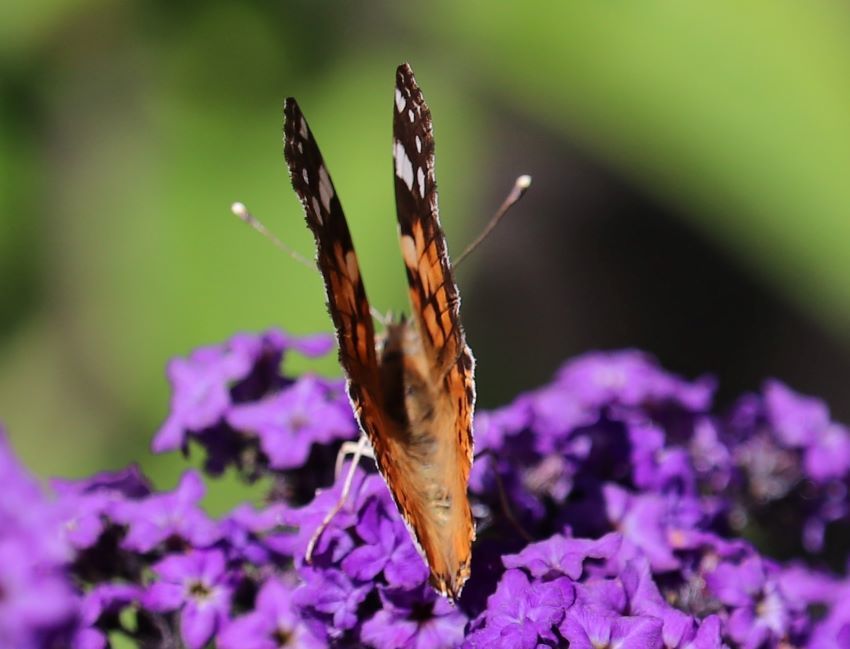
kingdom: Animalia
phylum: Arthropoda
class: Insecta
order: Lepidoptera
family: Nymphalidae
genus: Vanessa
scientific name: Vanessa cardui
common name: Painted lady
